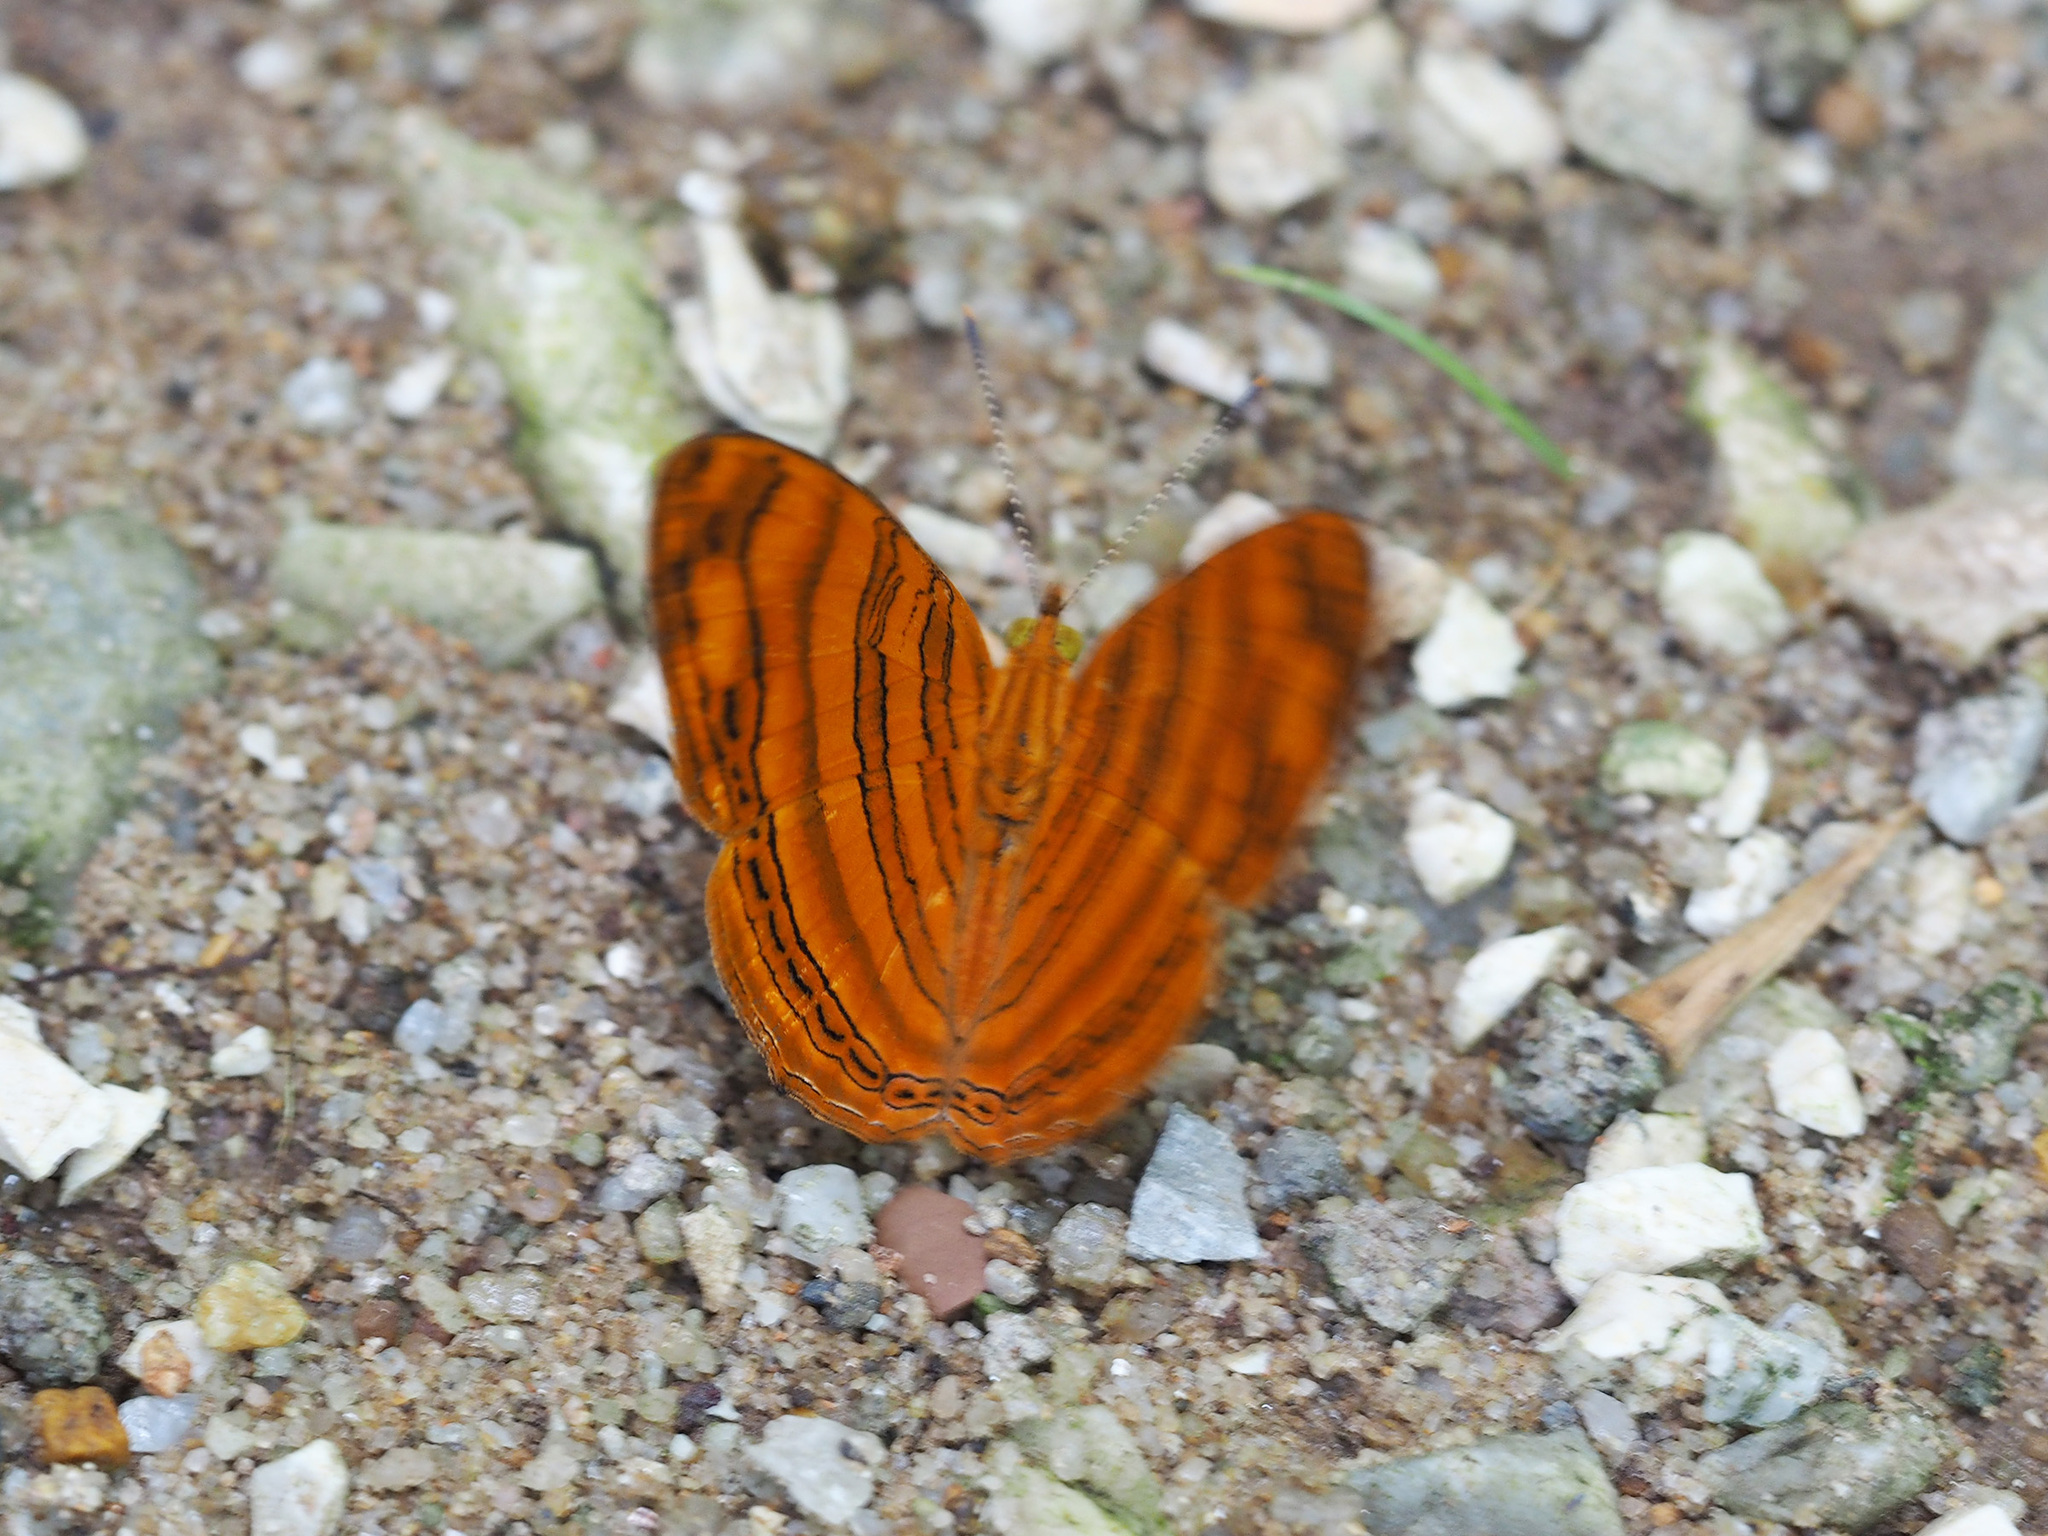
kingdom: Animalia
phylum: Arthropoda
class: Insecta
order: Lepidoptera
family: Nymphalidae
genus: Chersonesia
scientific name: Chersonesia rahria
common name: Wavy maplet
